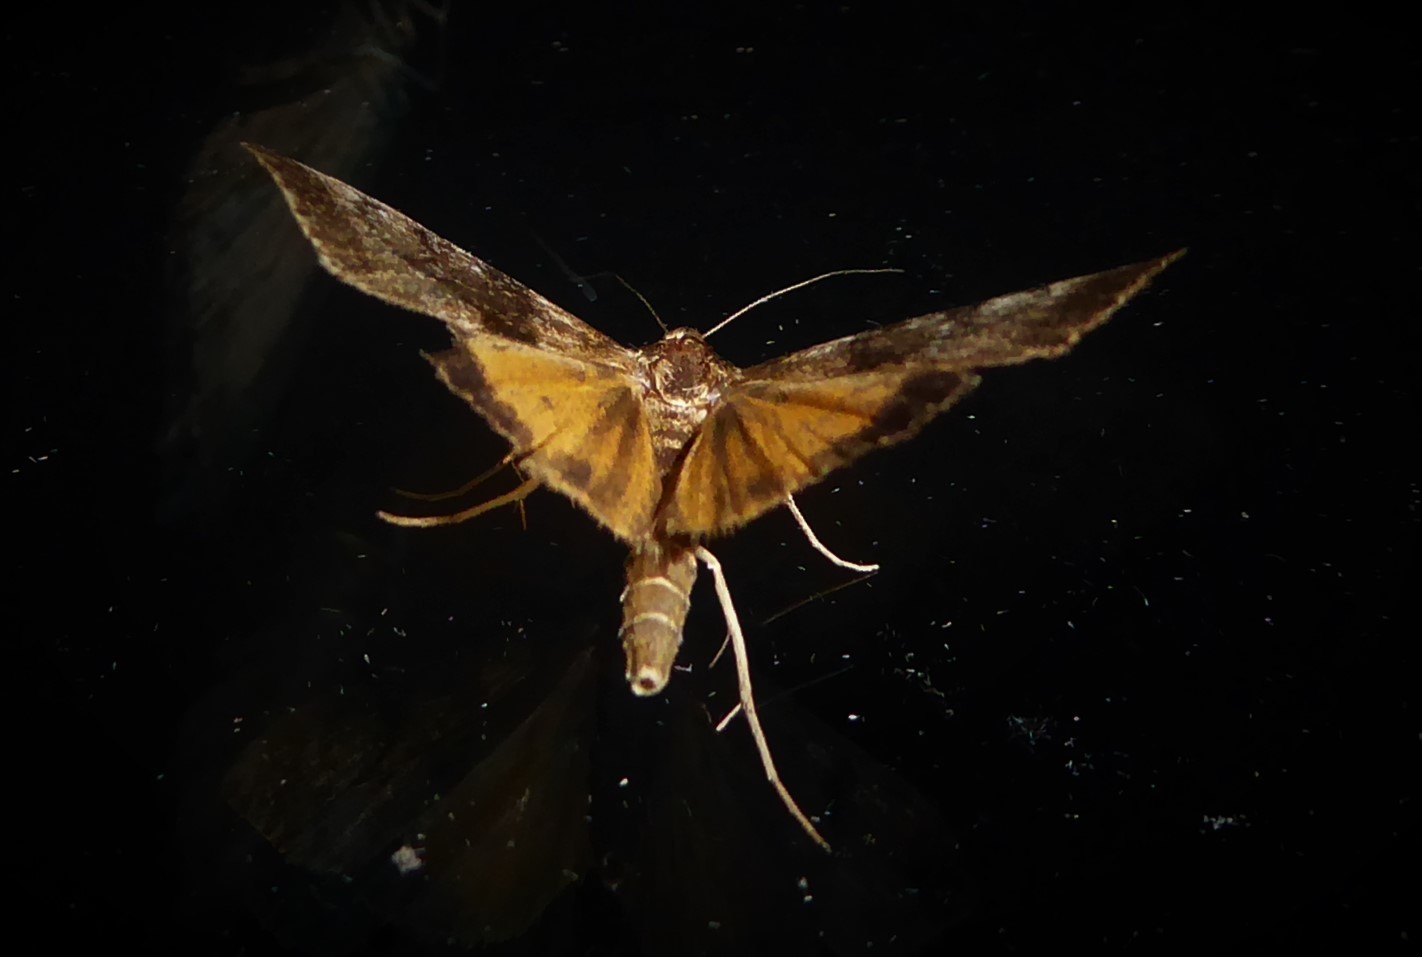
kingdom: Animalia
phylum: Arthropoda
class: Insecta
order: Lepidoptera
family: Crambidae
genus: Uresiphita
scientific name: Uresiphita
